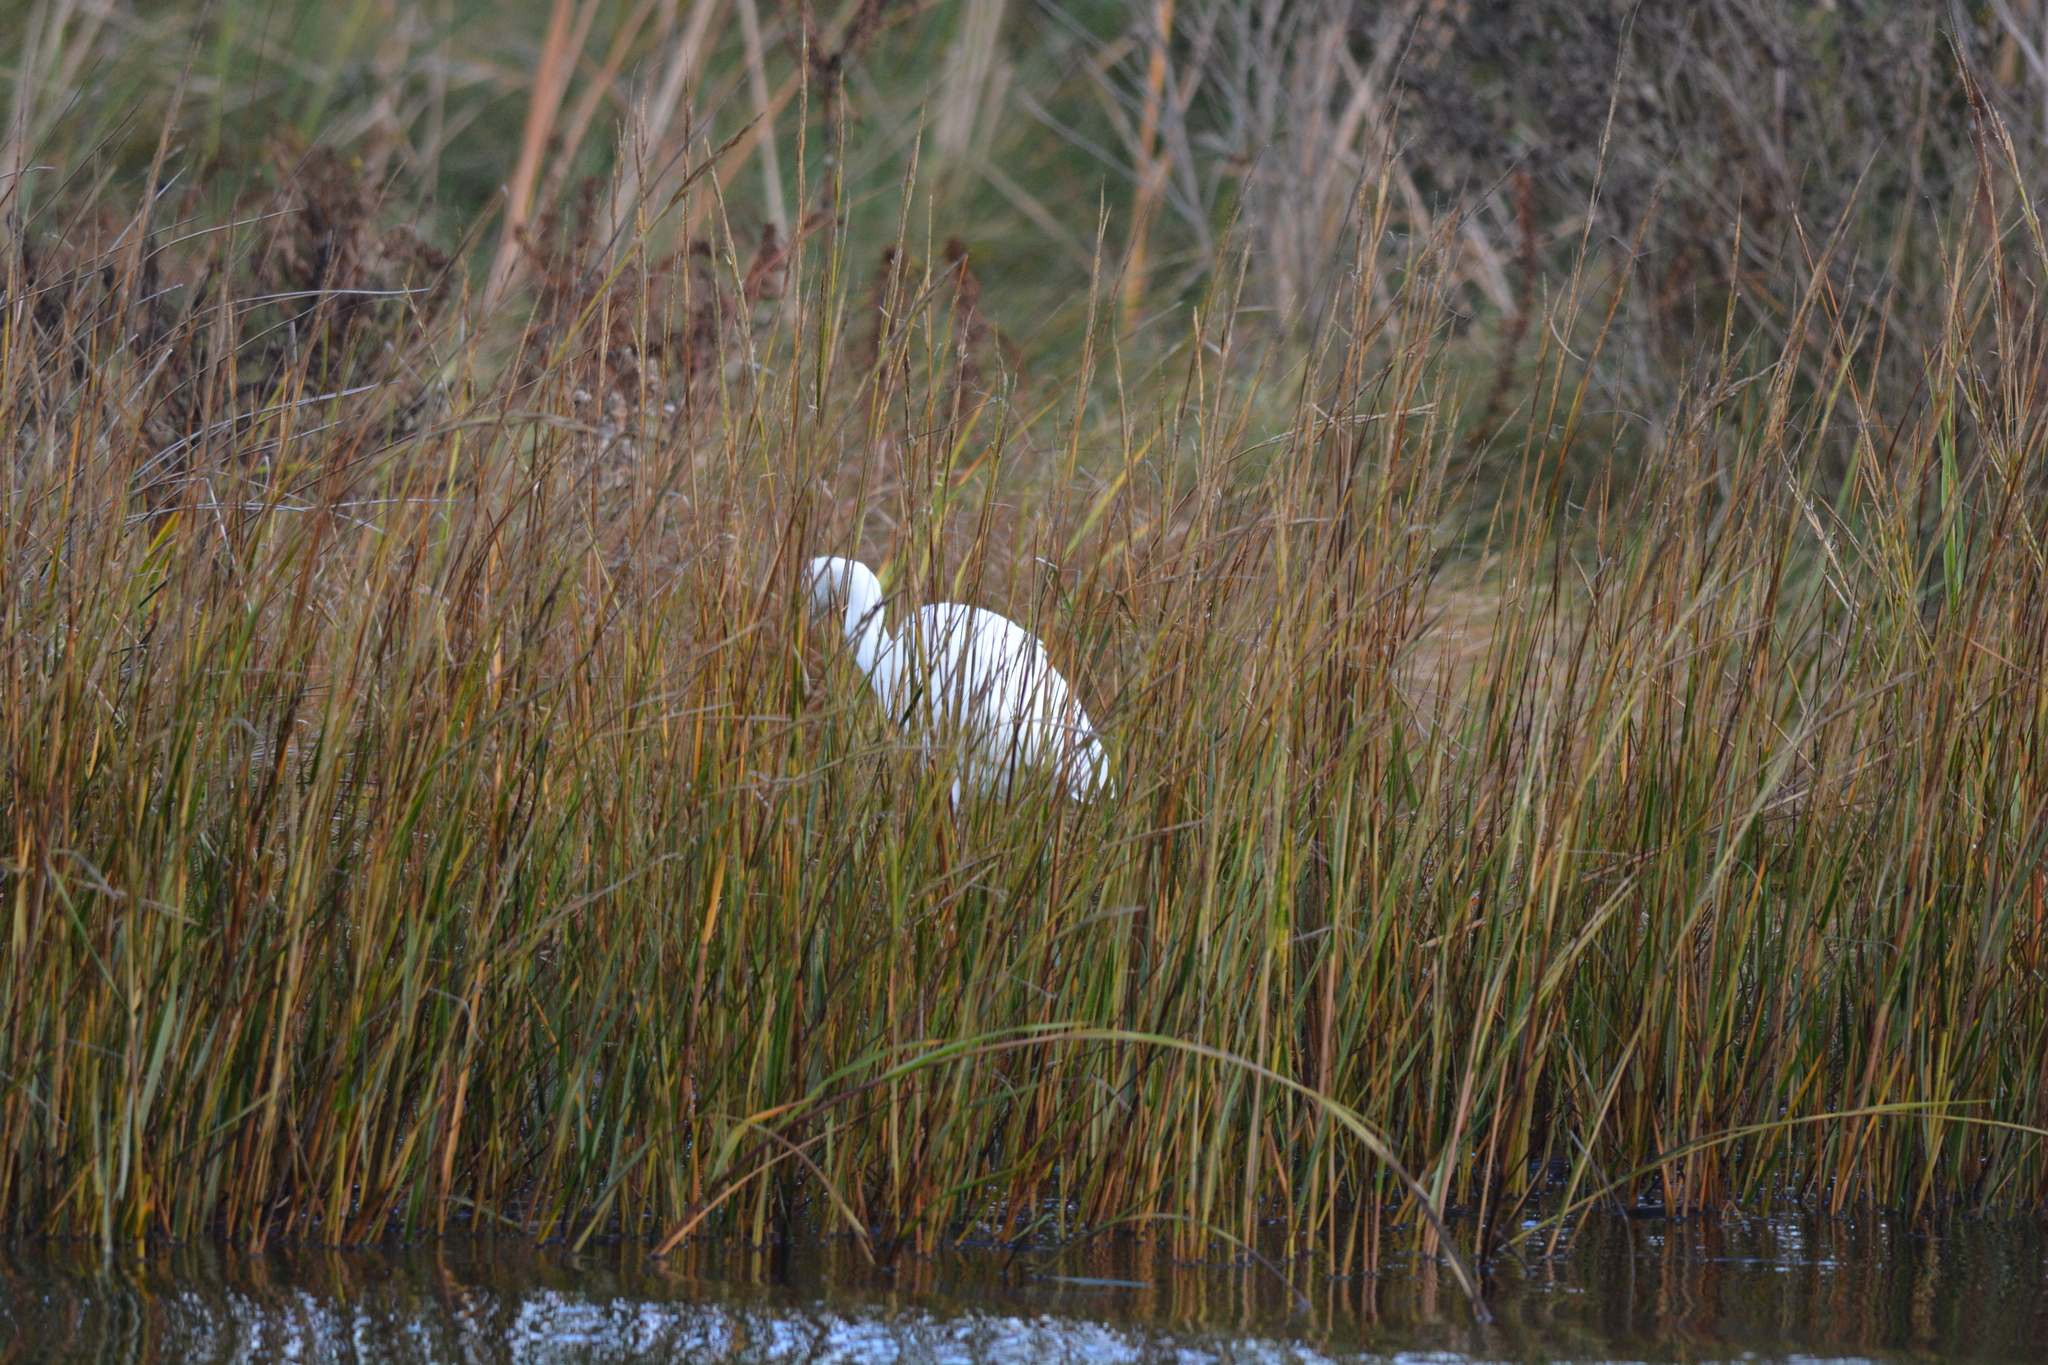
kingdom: Animalia
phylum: Chordata
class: Aves
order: Pelecaniformes
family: Ardeidae
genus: Ardea
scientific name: Ardea alba
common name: Great egret
